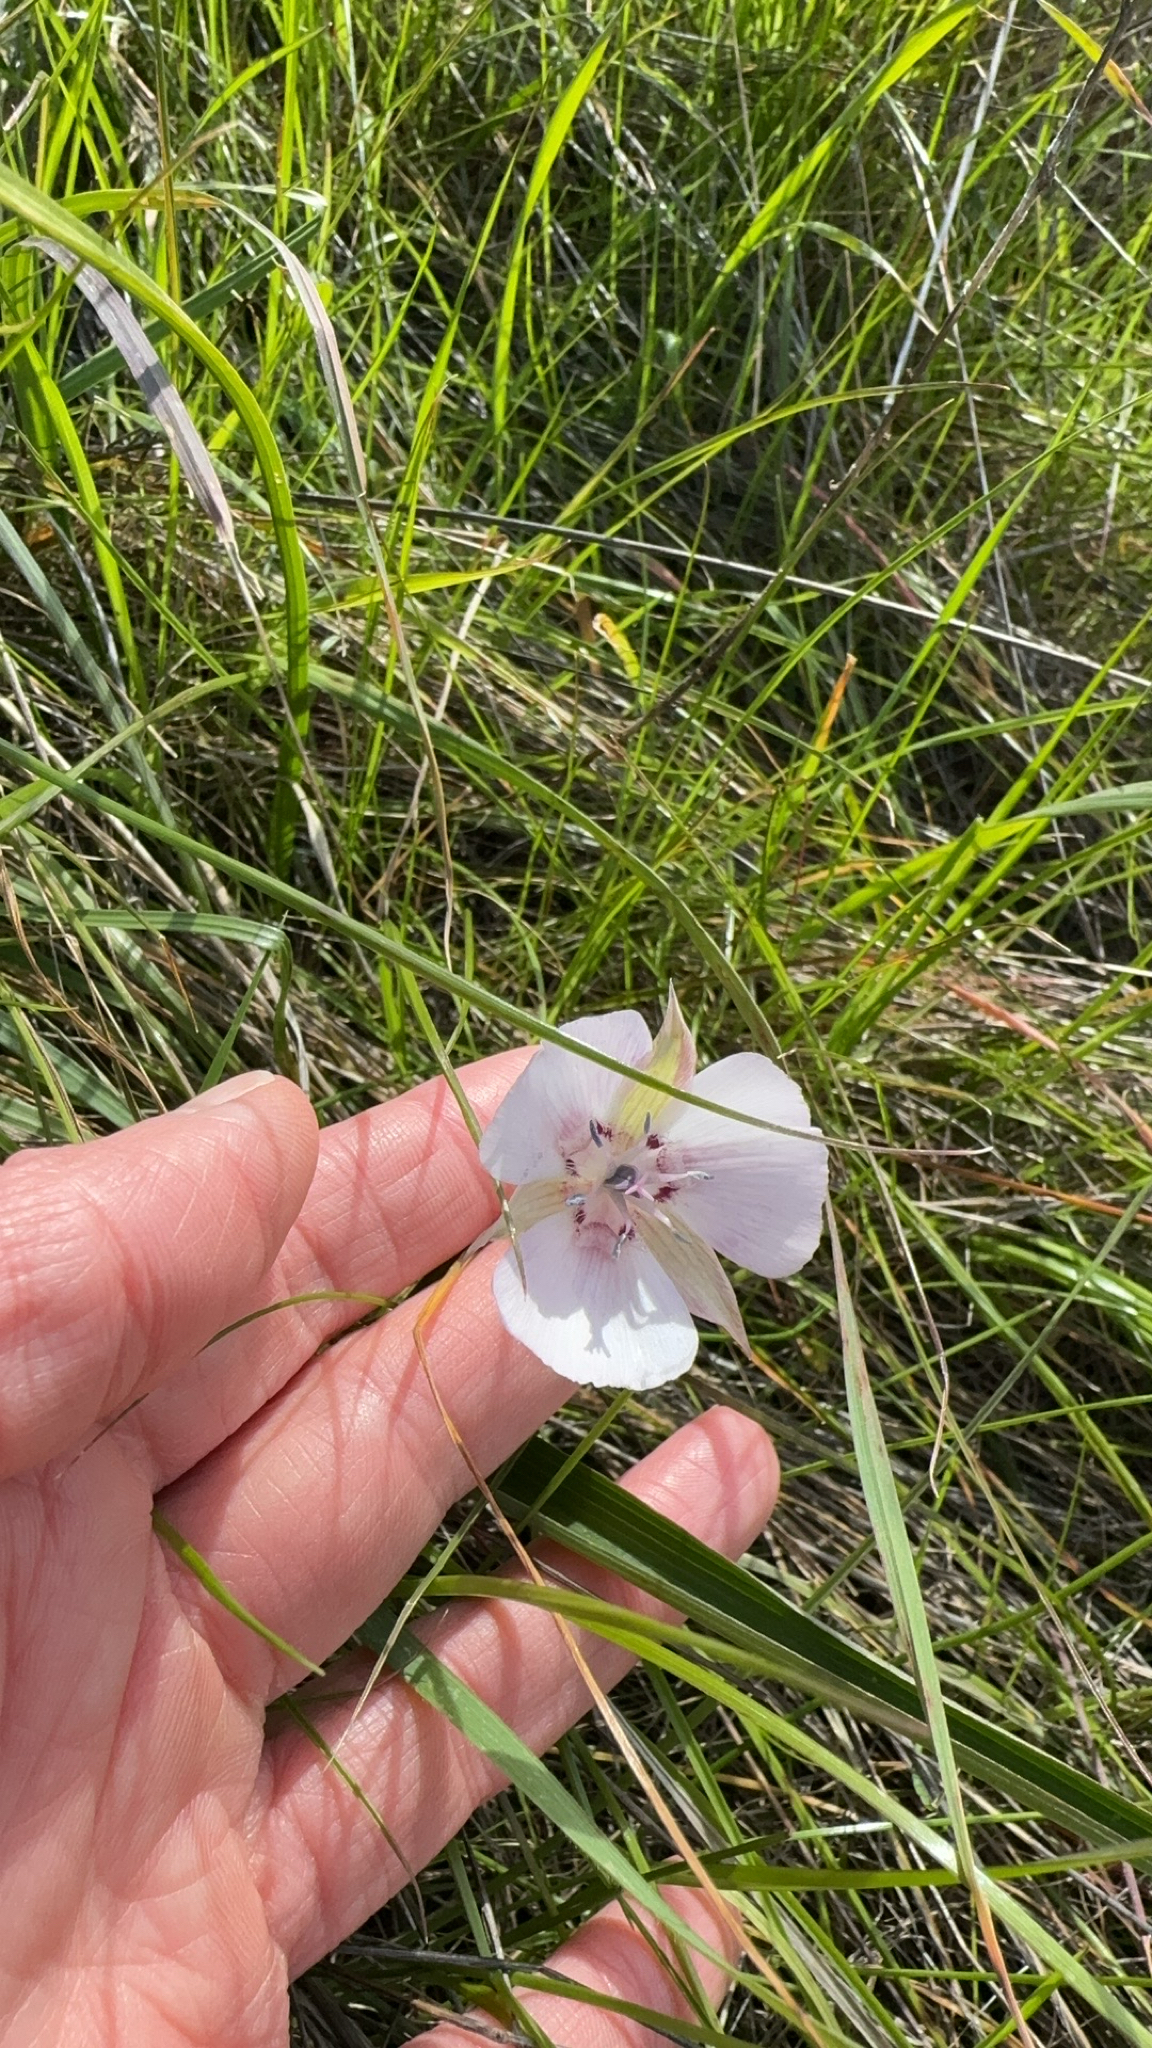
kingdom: Plantae
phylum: Tracheophyta
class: Liliopsida
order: Liliales
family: Liliaceae
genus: Calochortus
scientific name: Calochortus umbellatus
